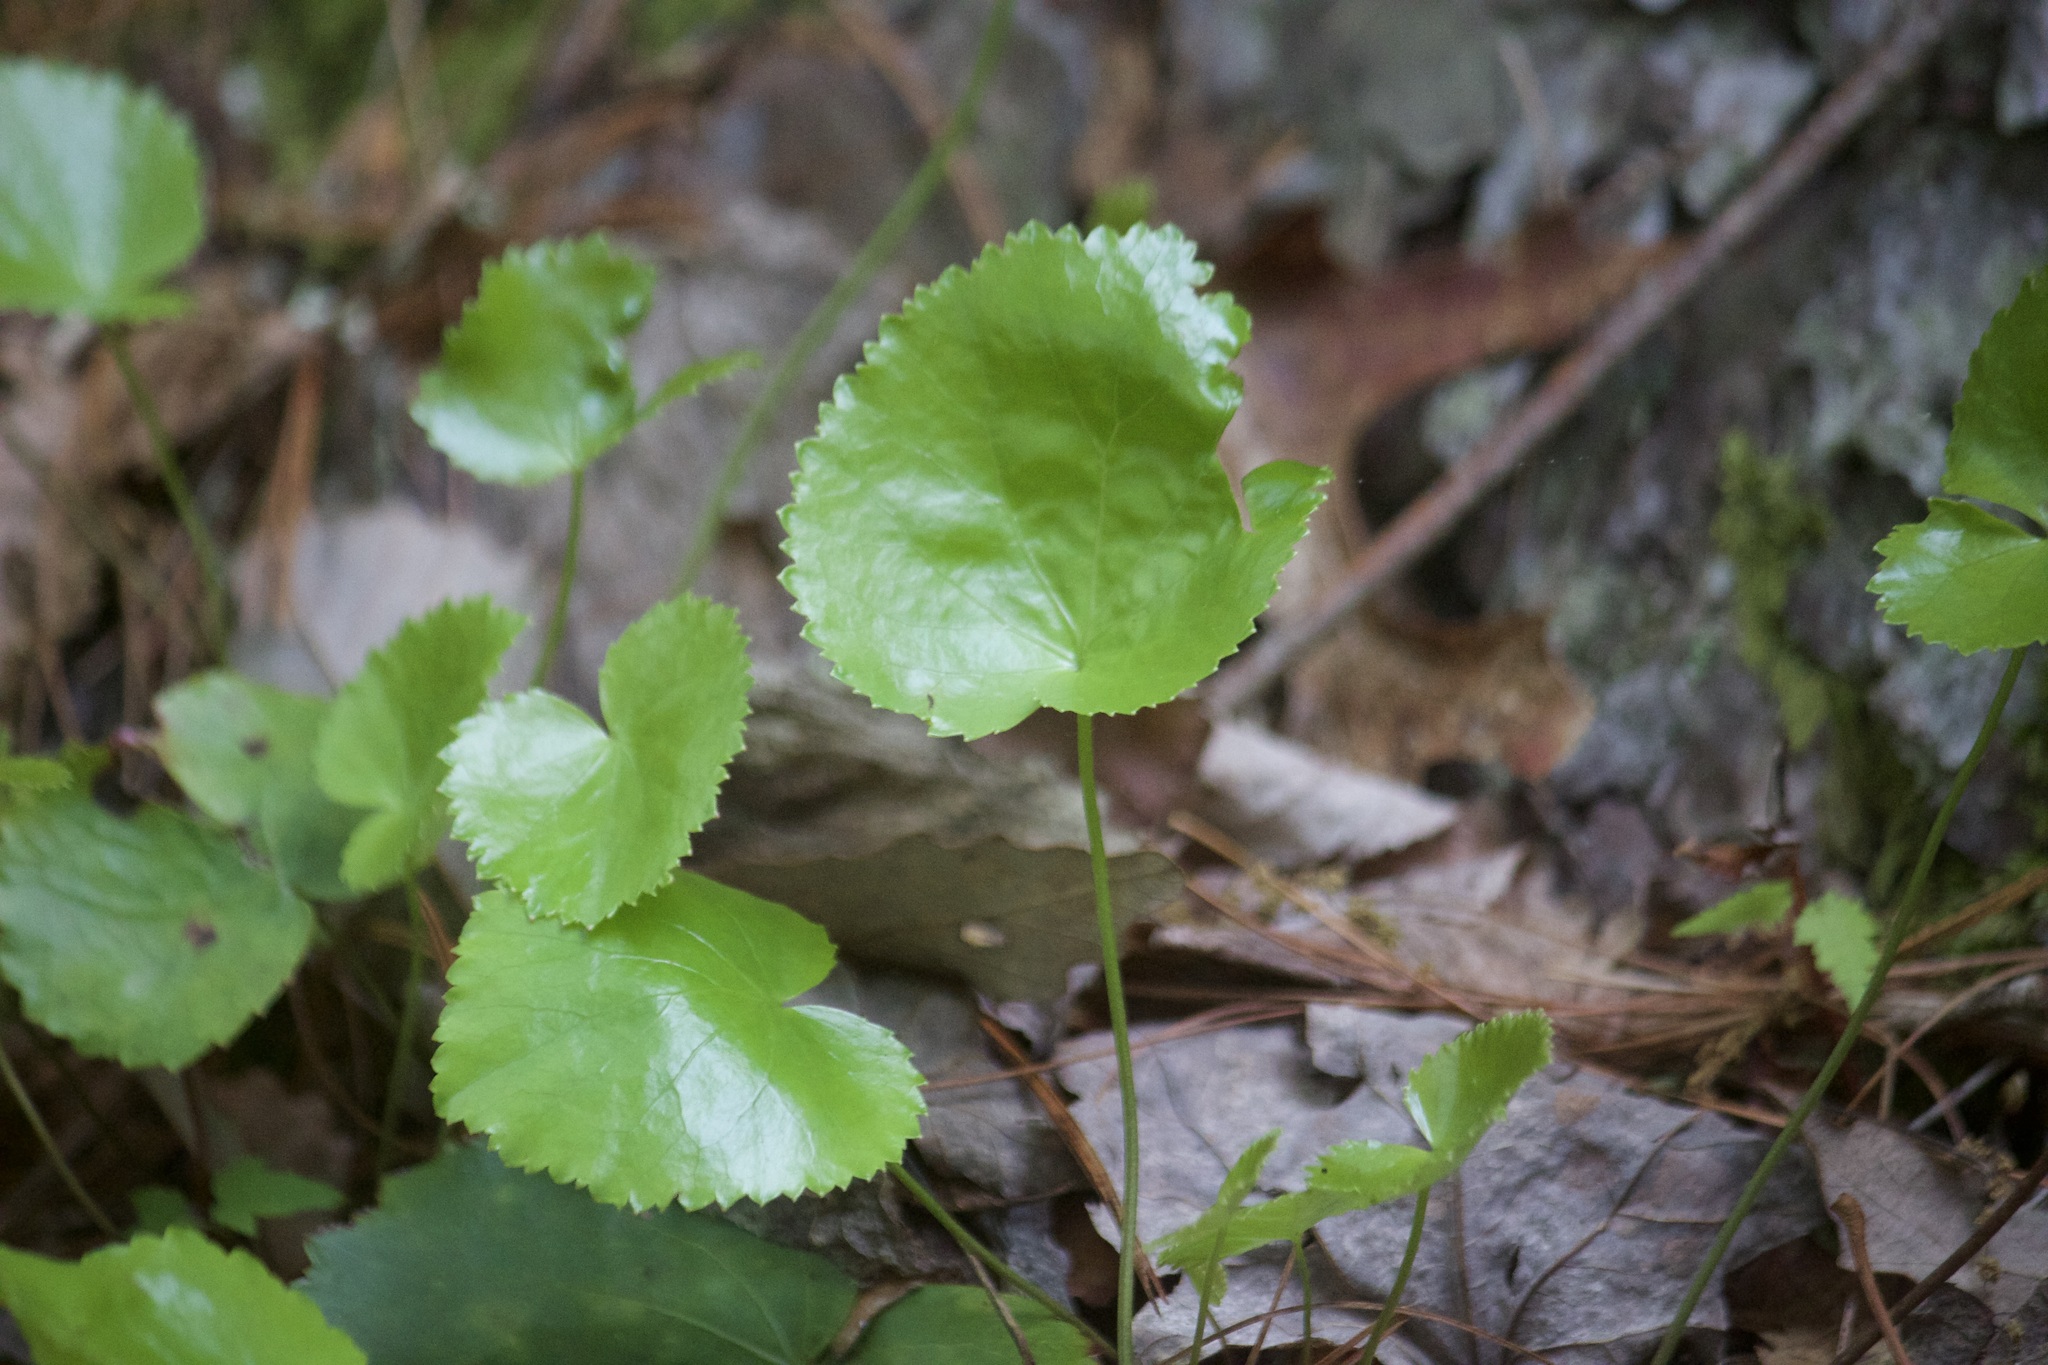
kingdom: Plantae
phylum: Tracheophyta
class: Magnoliopsida
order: Ericales
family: Diapensiaceae
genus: Galax
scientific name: Galax urceolata
